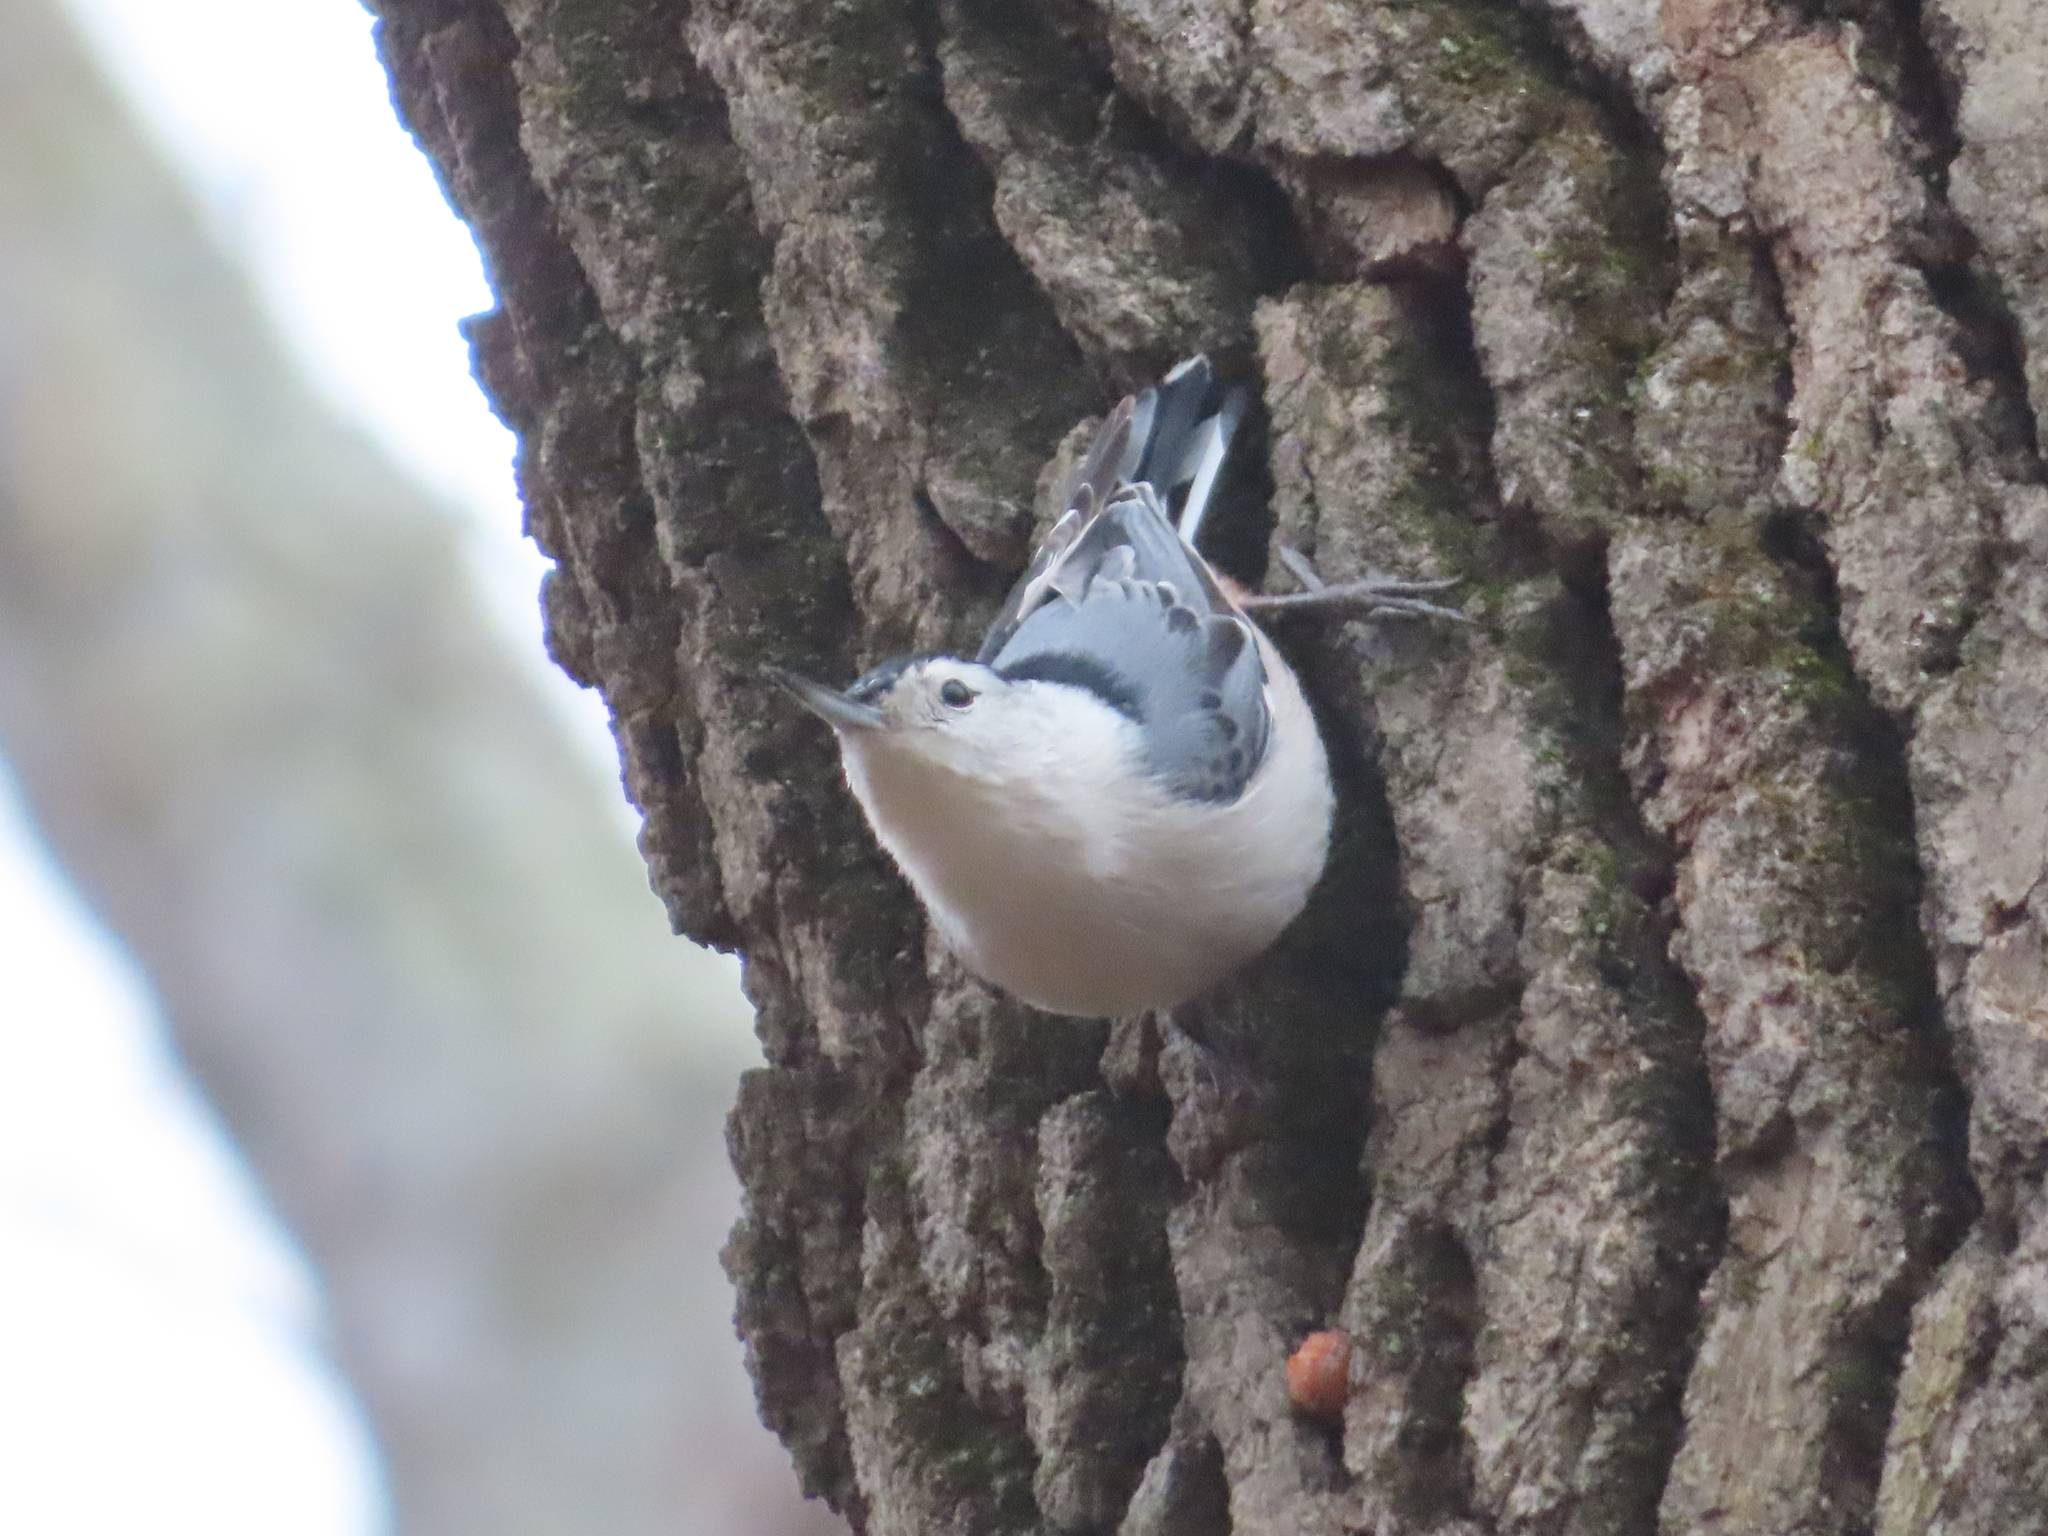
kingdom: Animalia
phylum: Chordata
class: Aves
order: Passeriformes
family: Sittidae
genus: Sitta
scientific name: Sitta carolinensis
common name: White-breasted nuthatch
